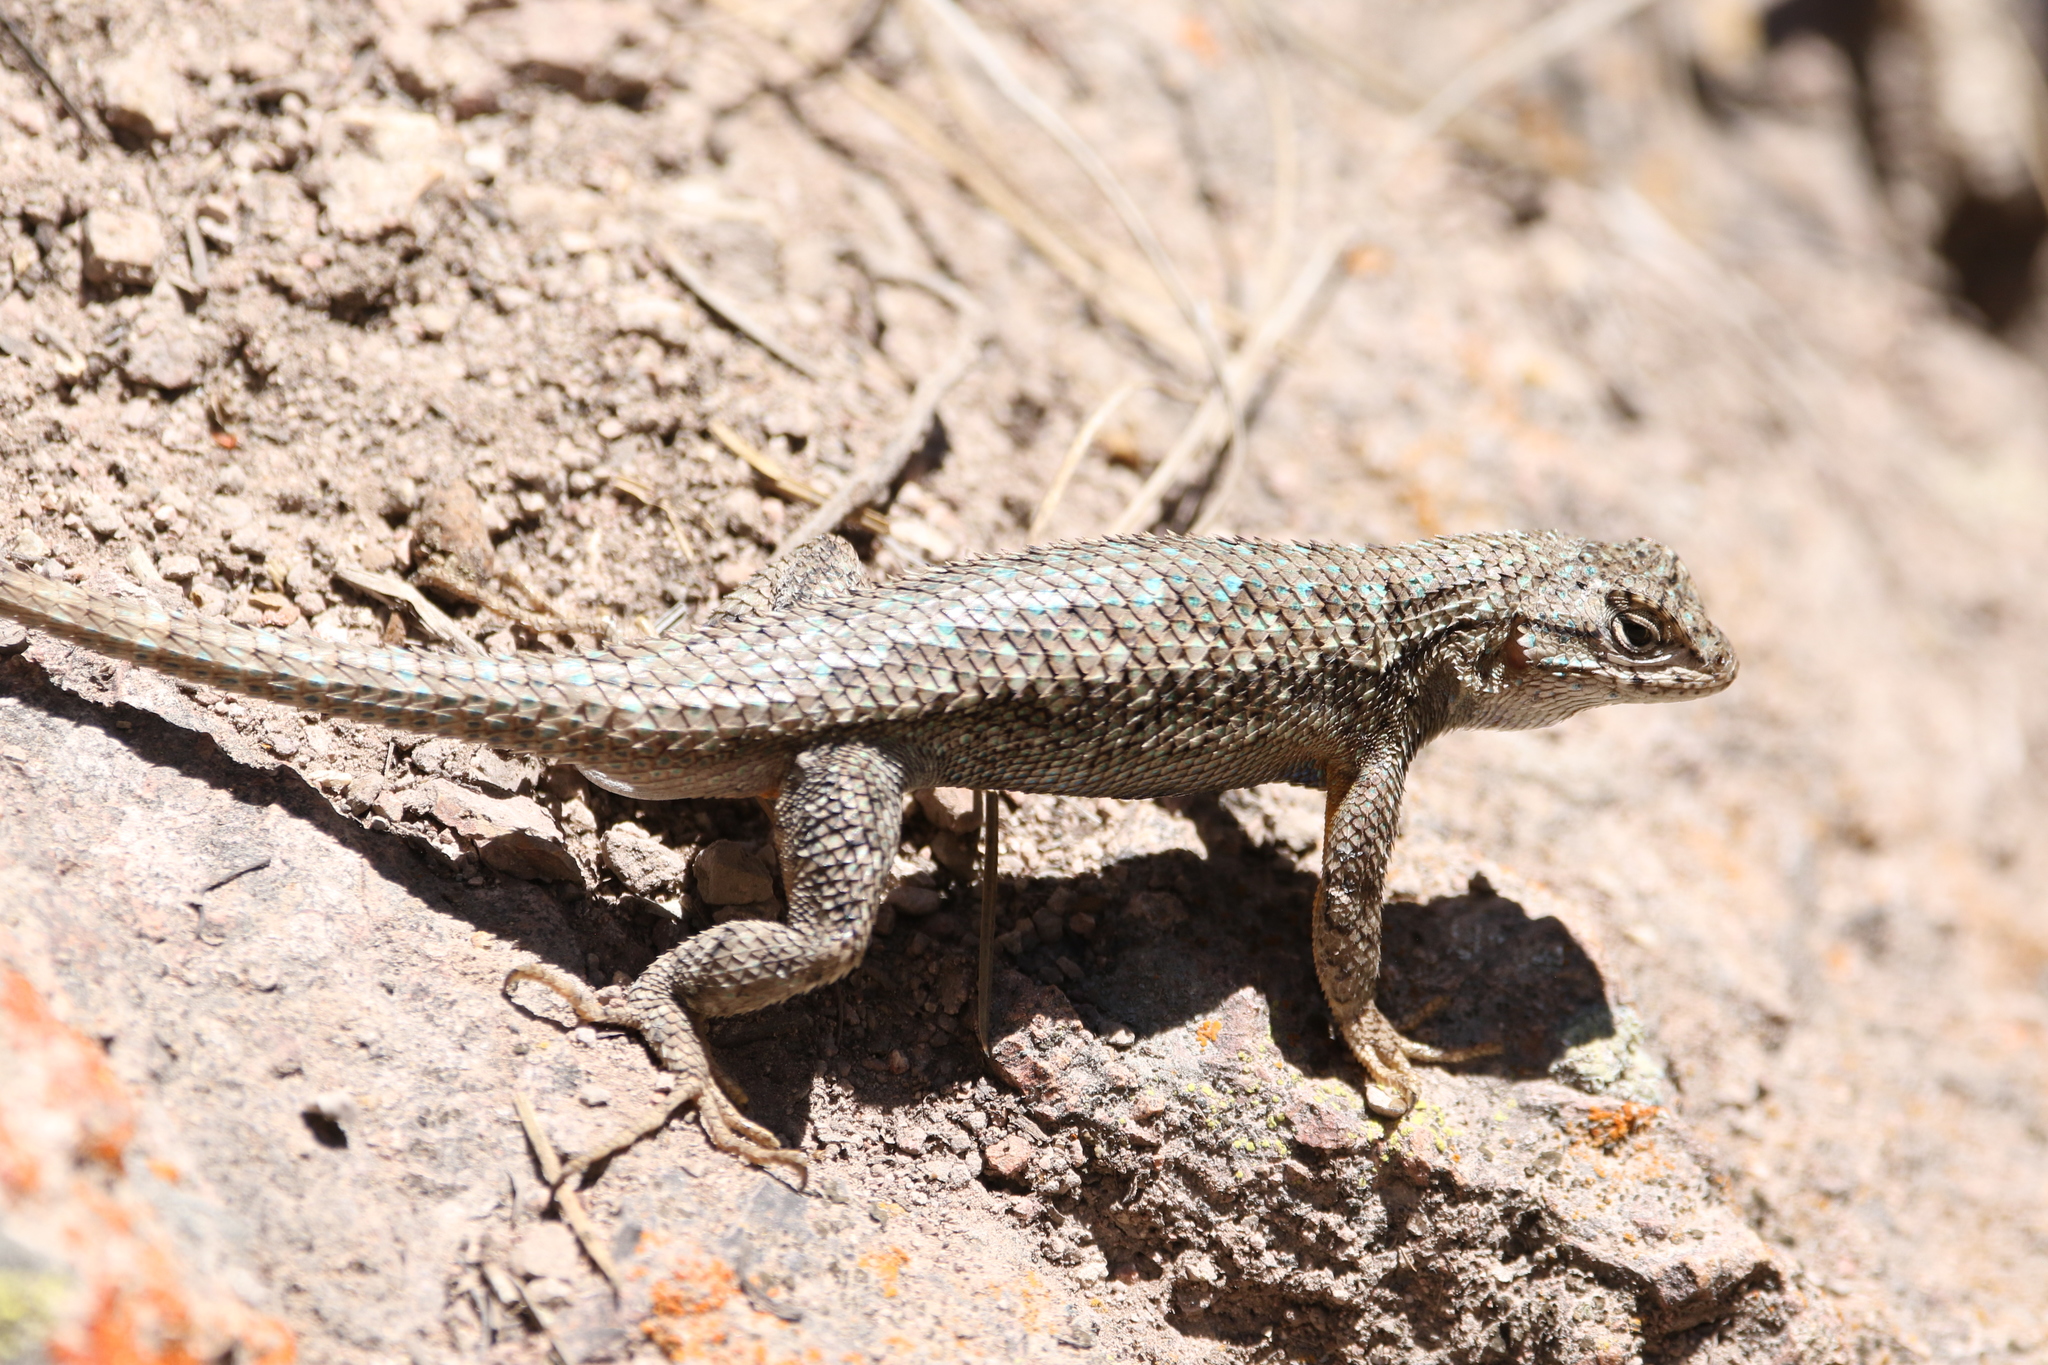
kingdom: Animalia
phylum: Chordata
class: Squamata
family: Phrynosomatidae
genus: Sceloporus
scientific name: Sceloporus occidentalis
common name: Western fence lizard
